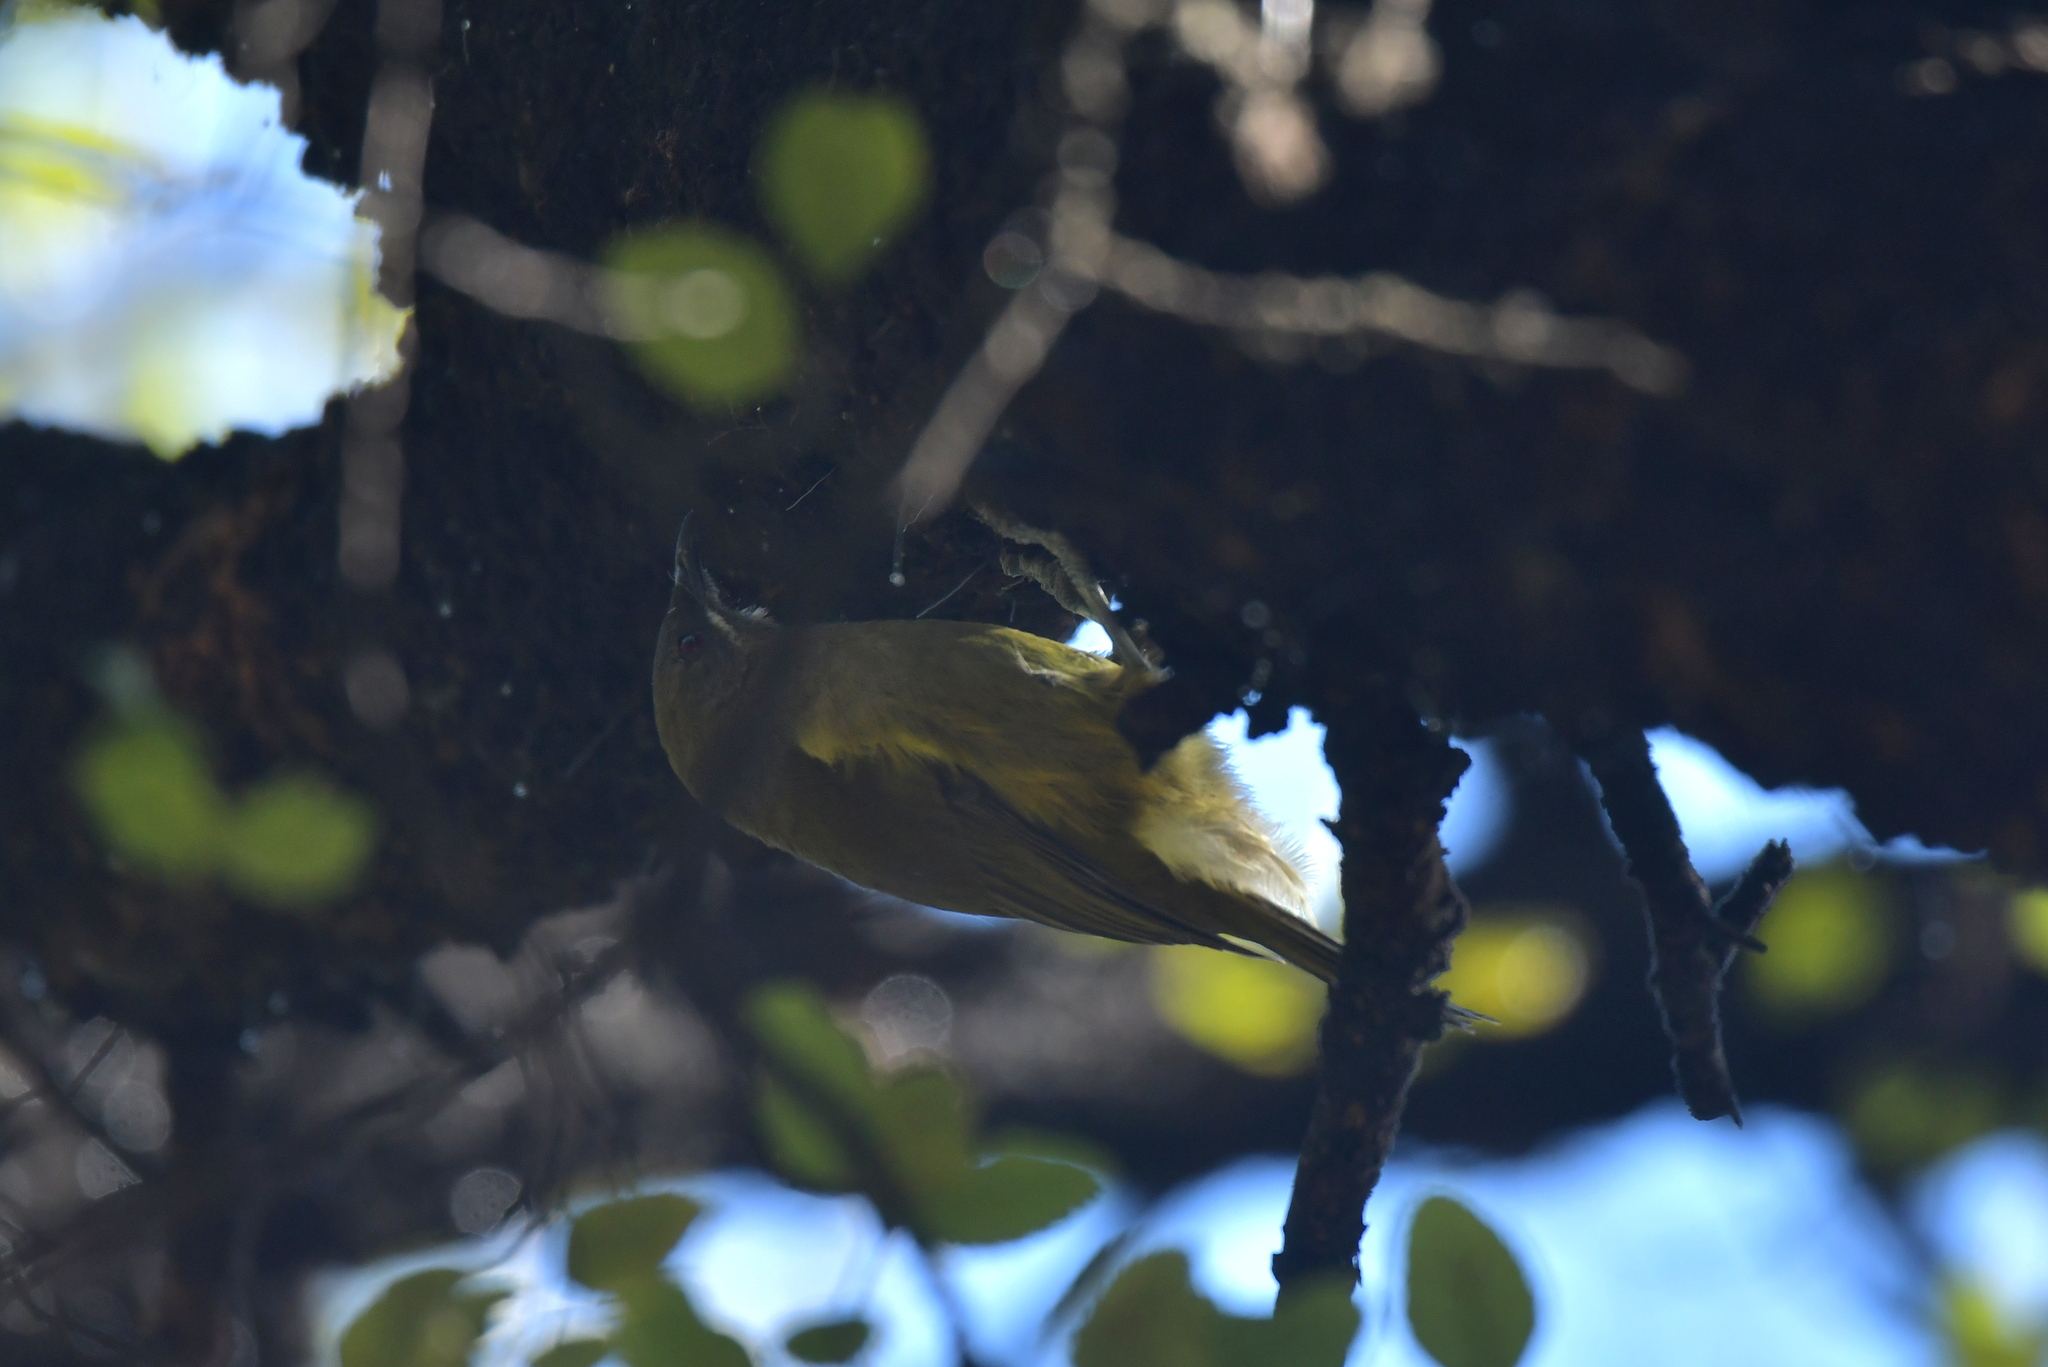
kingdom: Animalia
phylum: Chordata
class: Aves
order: Passeriformes
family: Meliphagidae
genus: Anthornis
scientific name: Anthornis melanura
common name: New zealand bellbird
